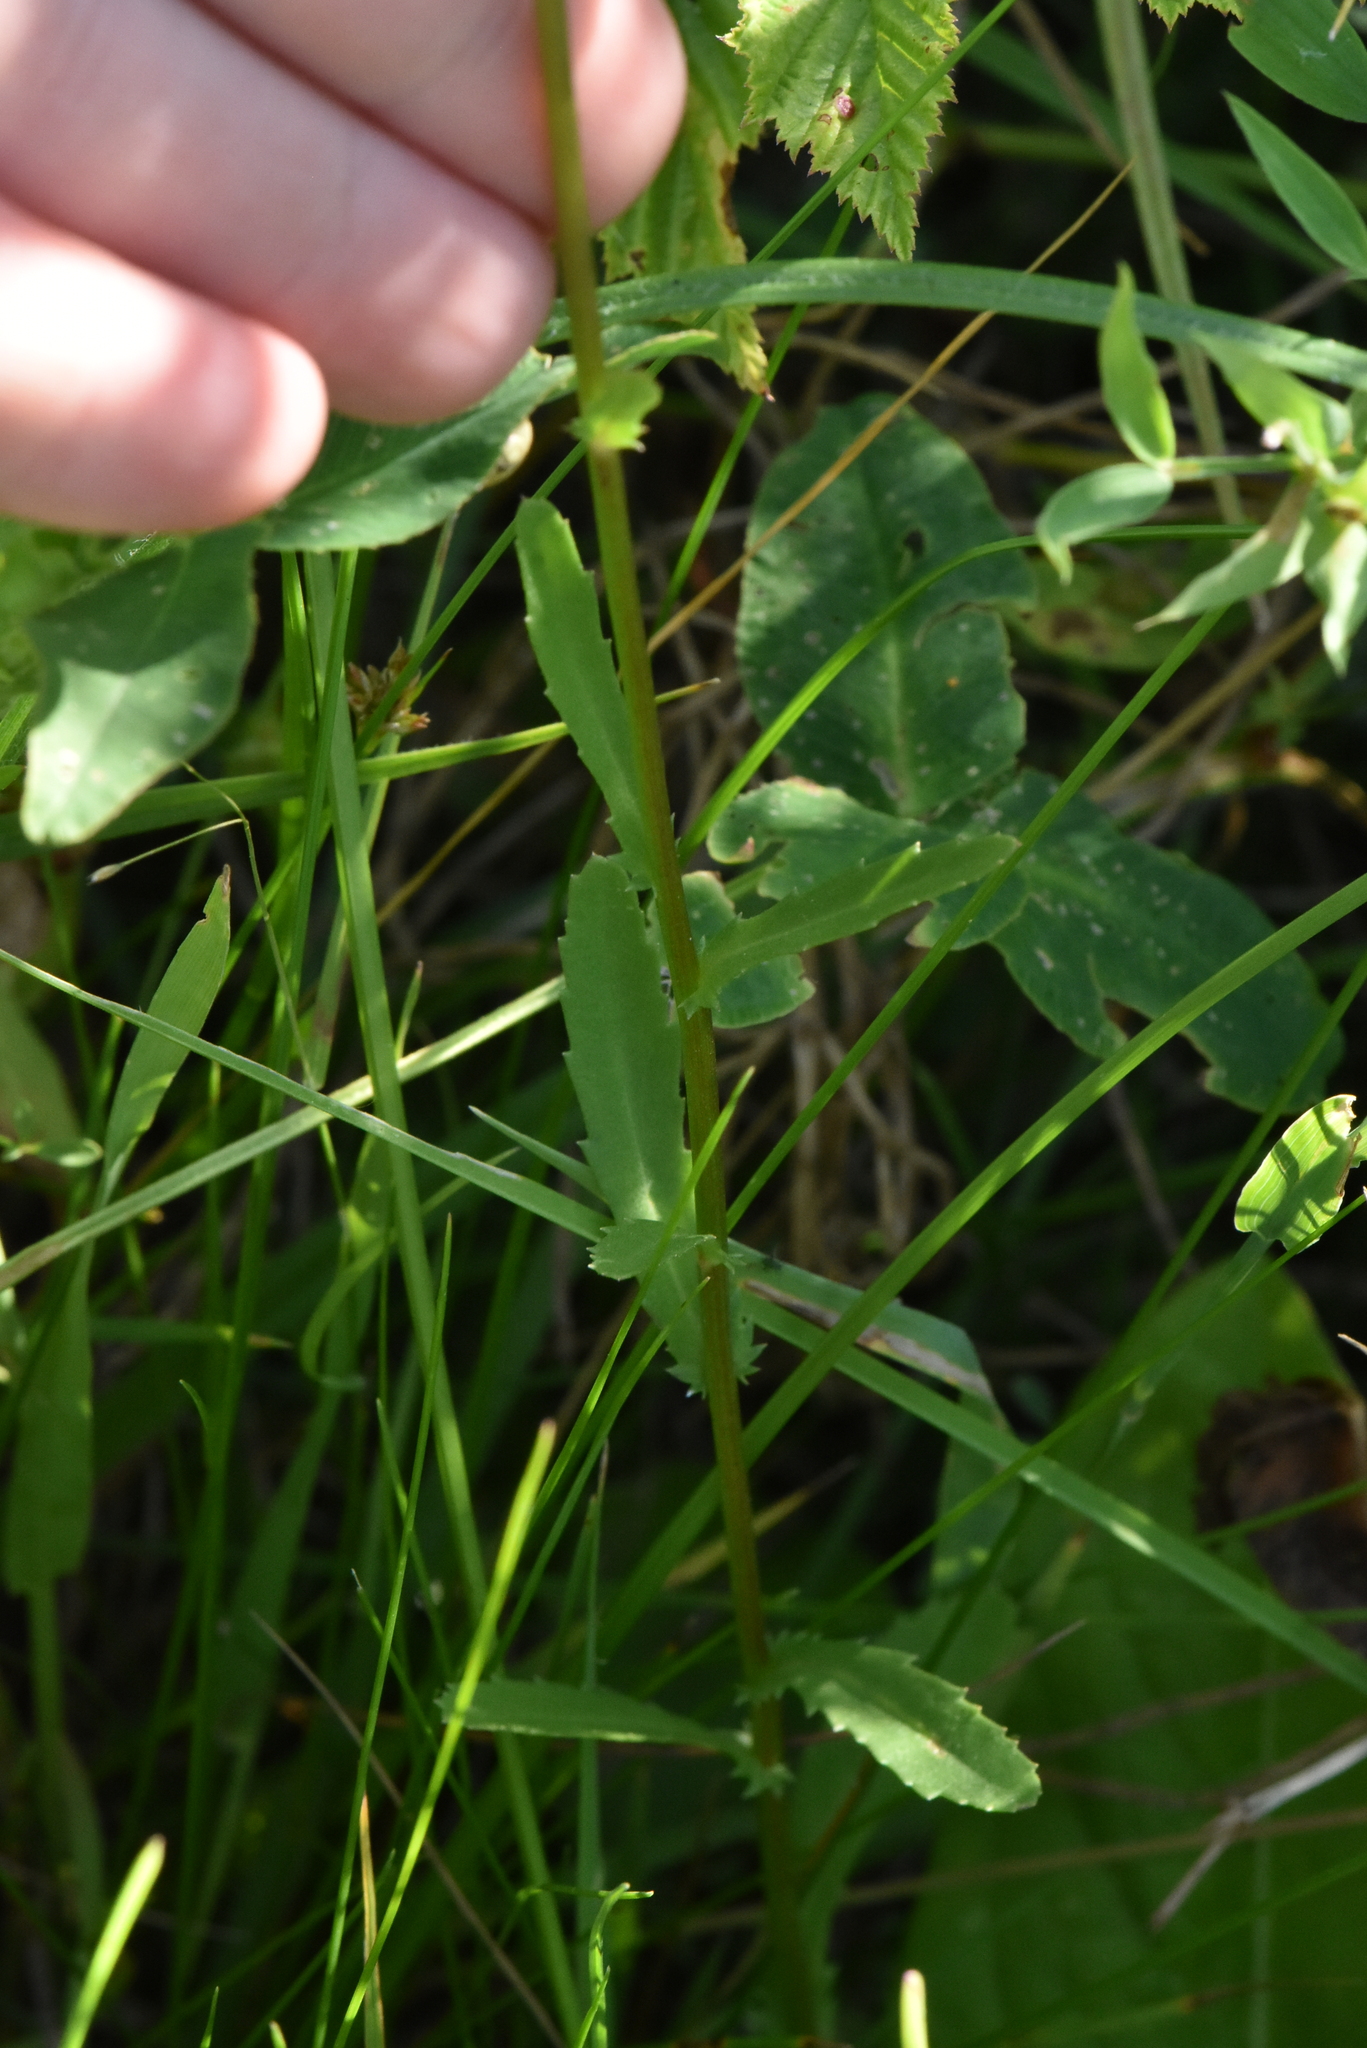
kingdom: Plantae
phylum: Tracheophyta
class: Magnoliopsida
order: Asterales
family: Asteraceae
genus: Leucanthemum
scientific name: Leucanthemum vulgare
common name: Oxeye daisy
